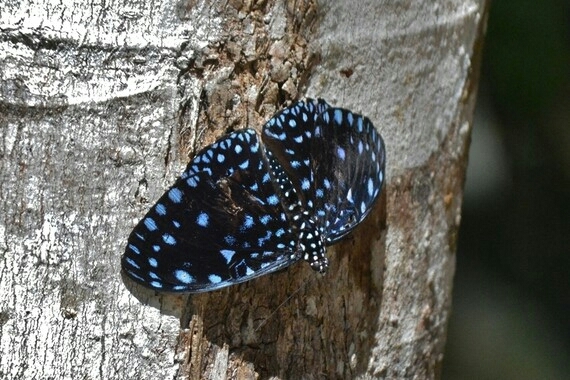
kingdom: Animalia
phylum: Arthropoda
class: Insecta
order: Lepidoptera
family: Nymphalidae
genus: Hamadryas
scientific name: Hamadryas laodamia
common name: Starry night cracker
